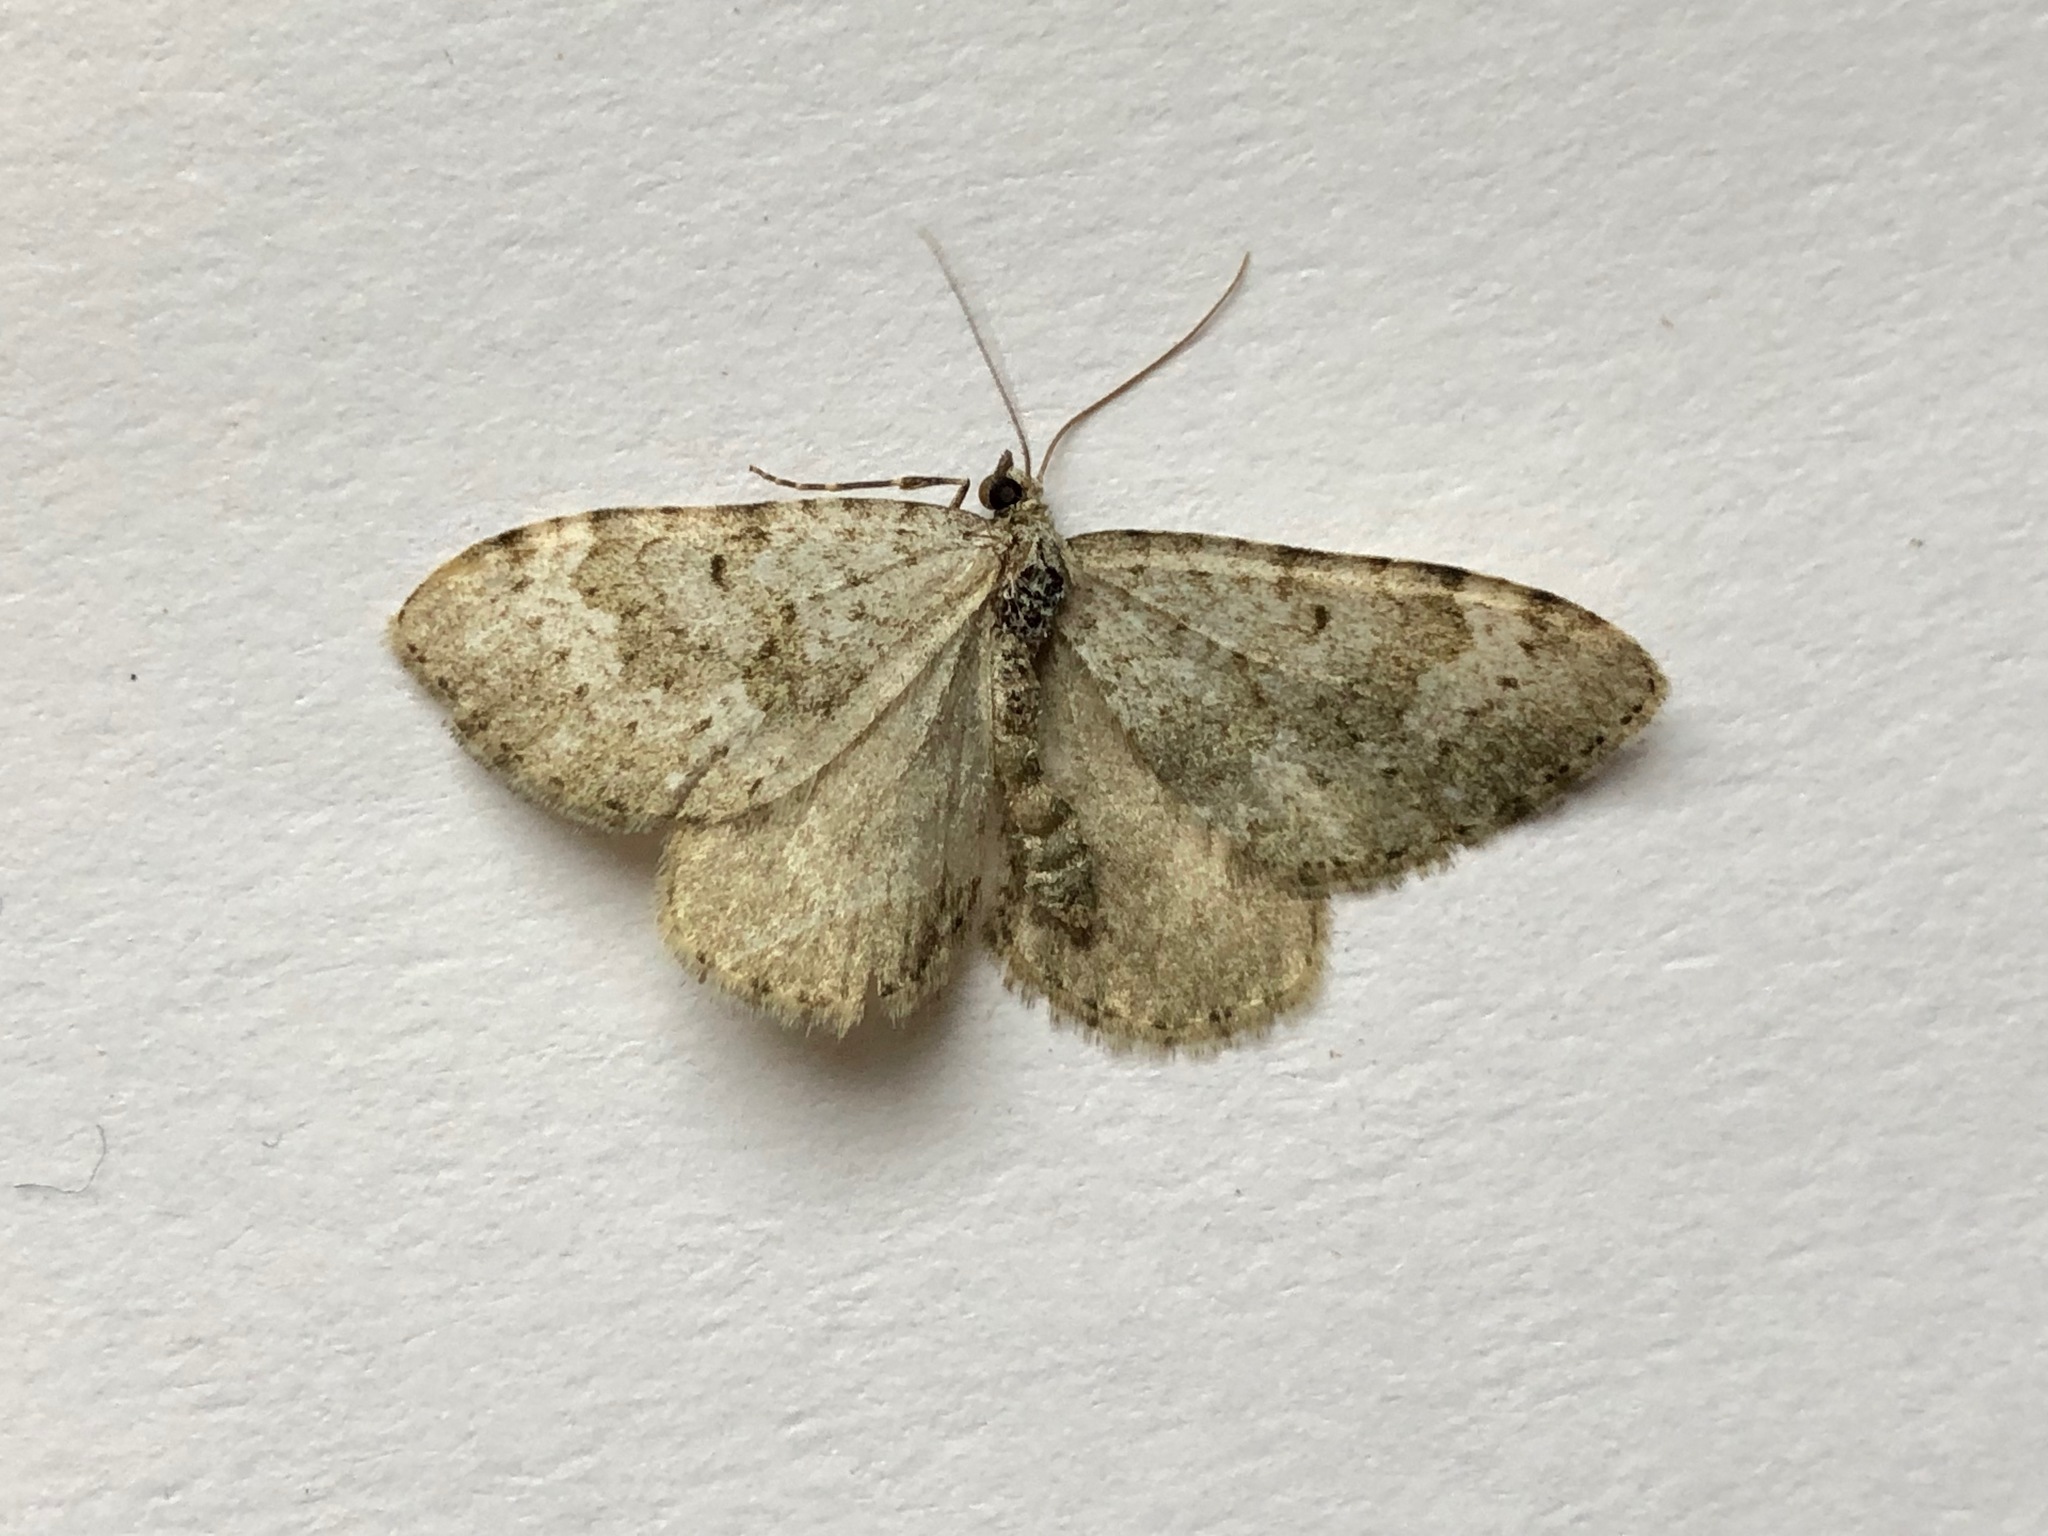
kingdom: Animalia
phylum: Arthropoda
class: Insecta
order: Lepidoptera
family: Geometridae
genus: Nebula
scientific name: Nebula salicata
